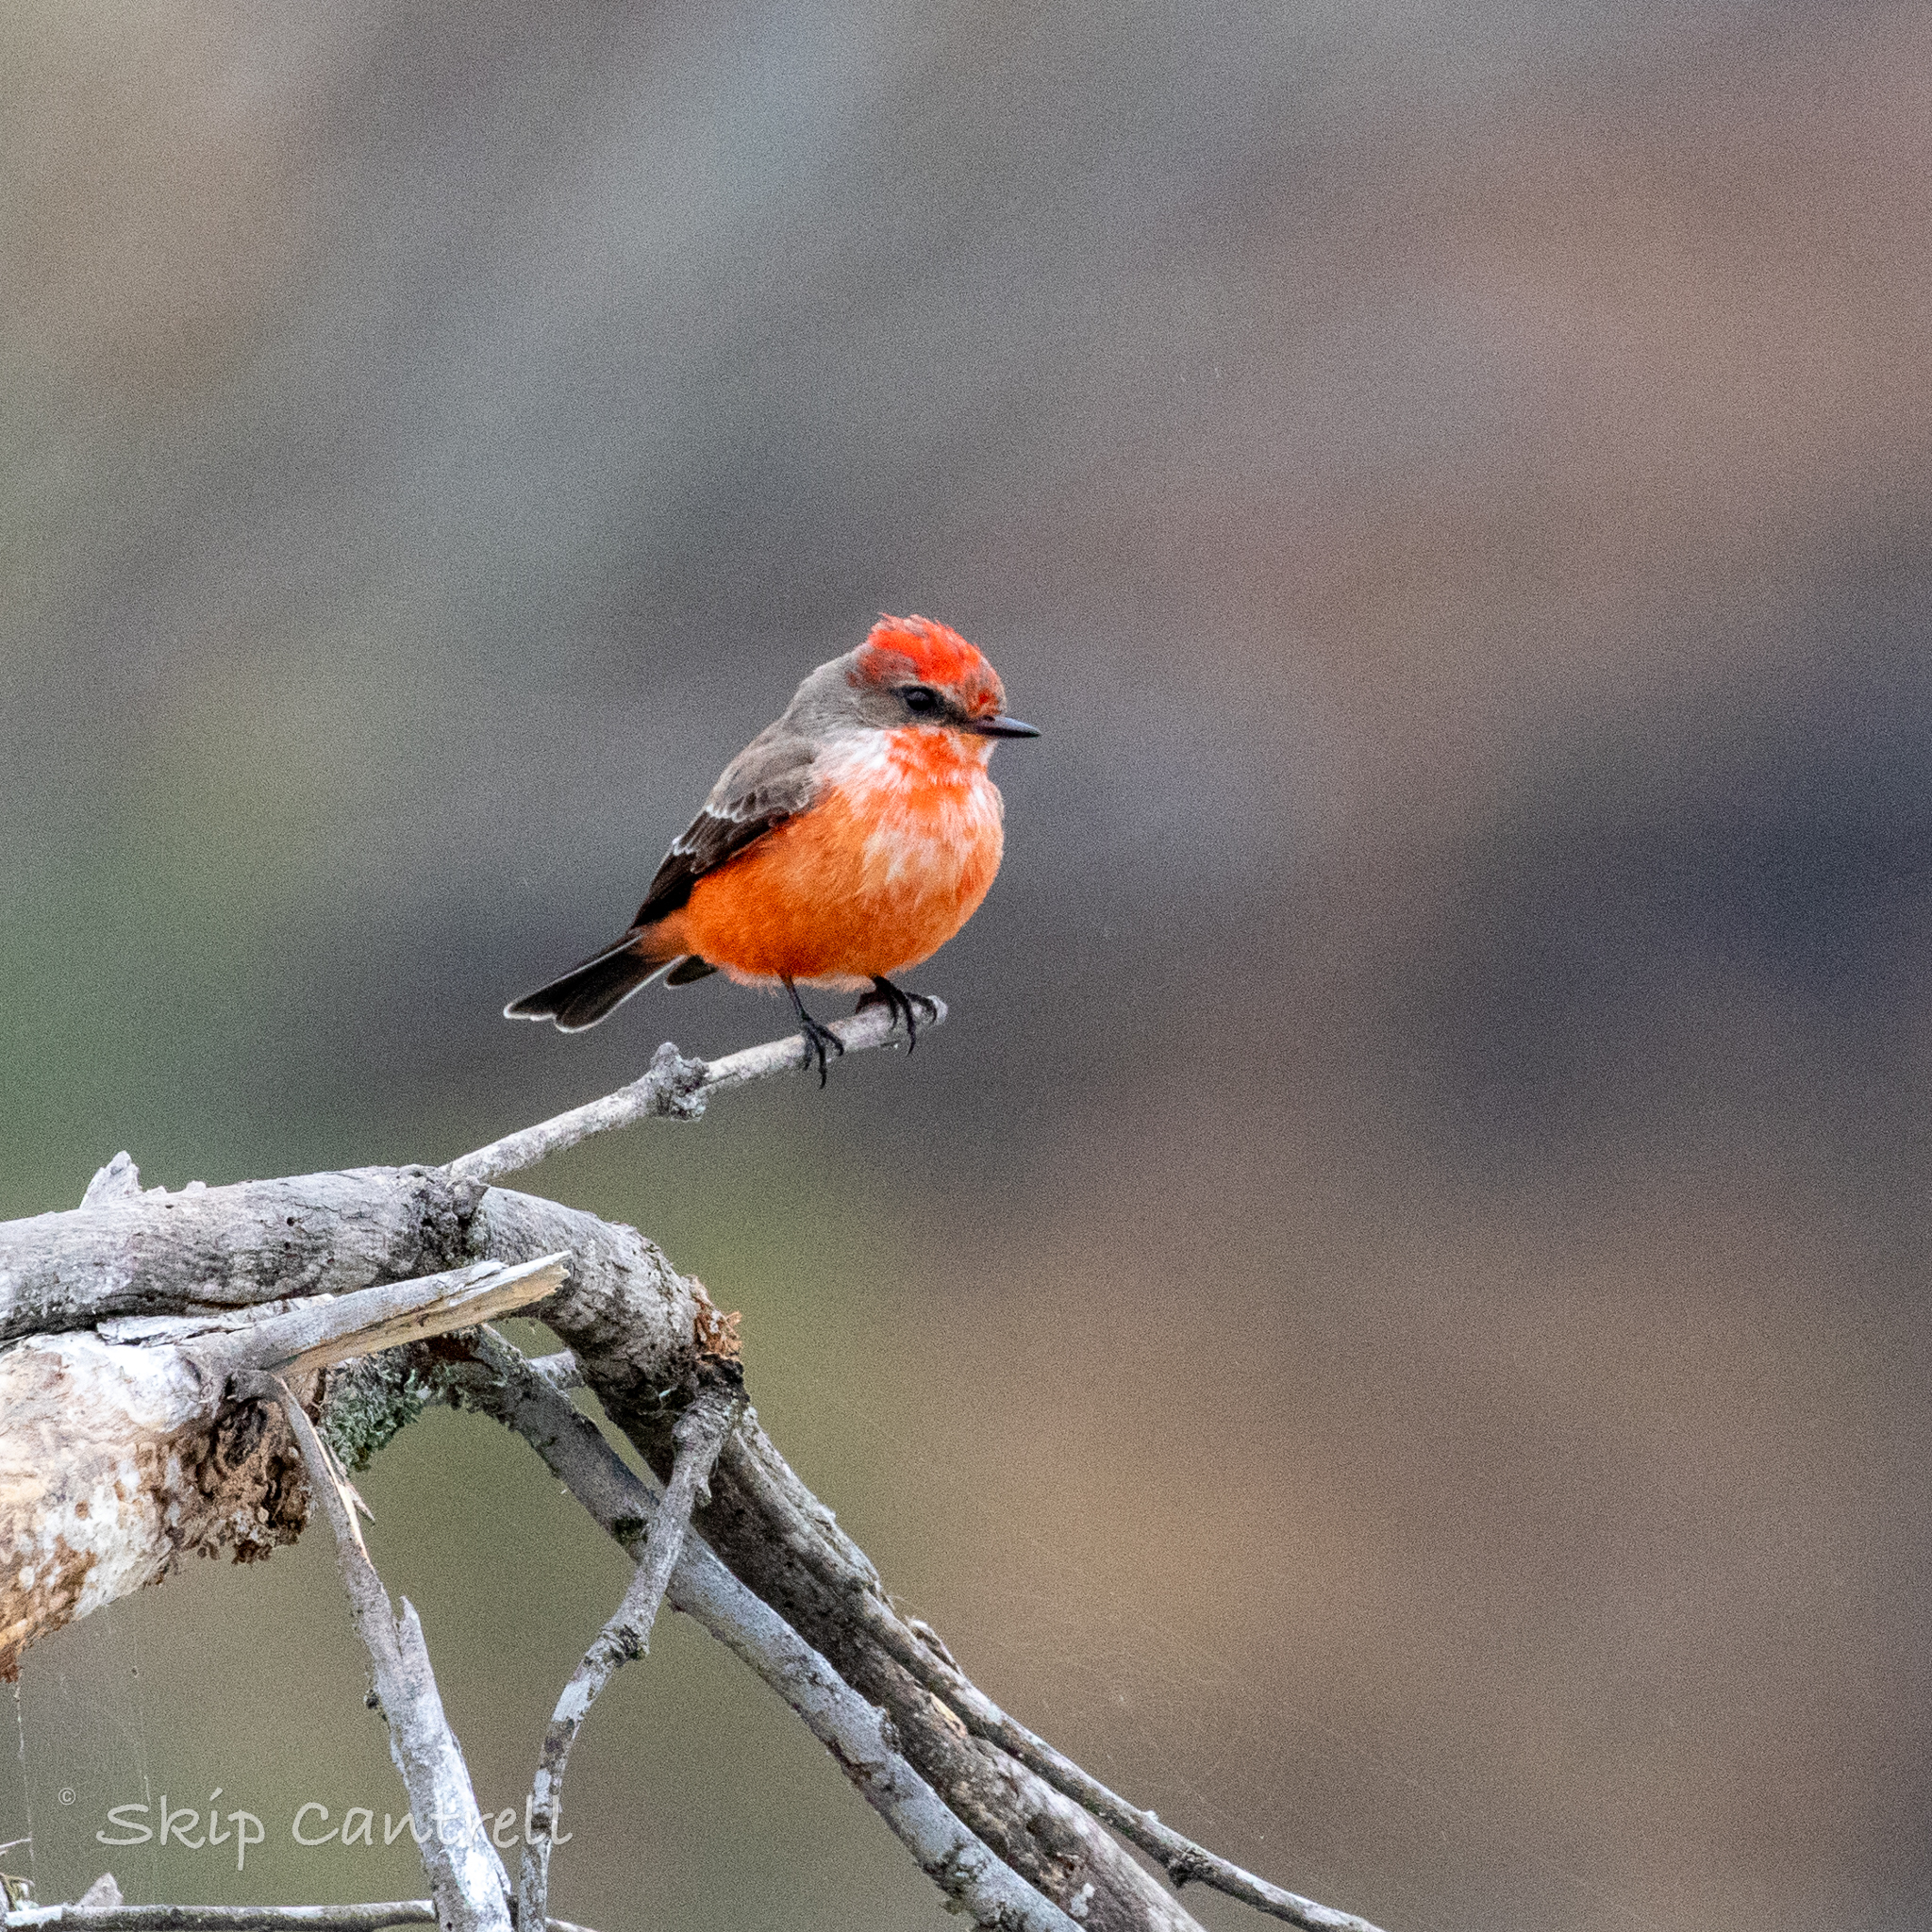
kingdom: Animalia
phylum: Chordata
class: Aves
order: Passeriformes
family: Tyrannidae
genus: Pyrocephalus
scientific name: Pyrocephalus rubinus
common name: Vermilion flycatcher
